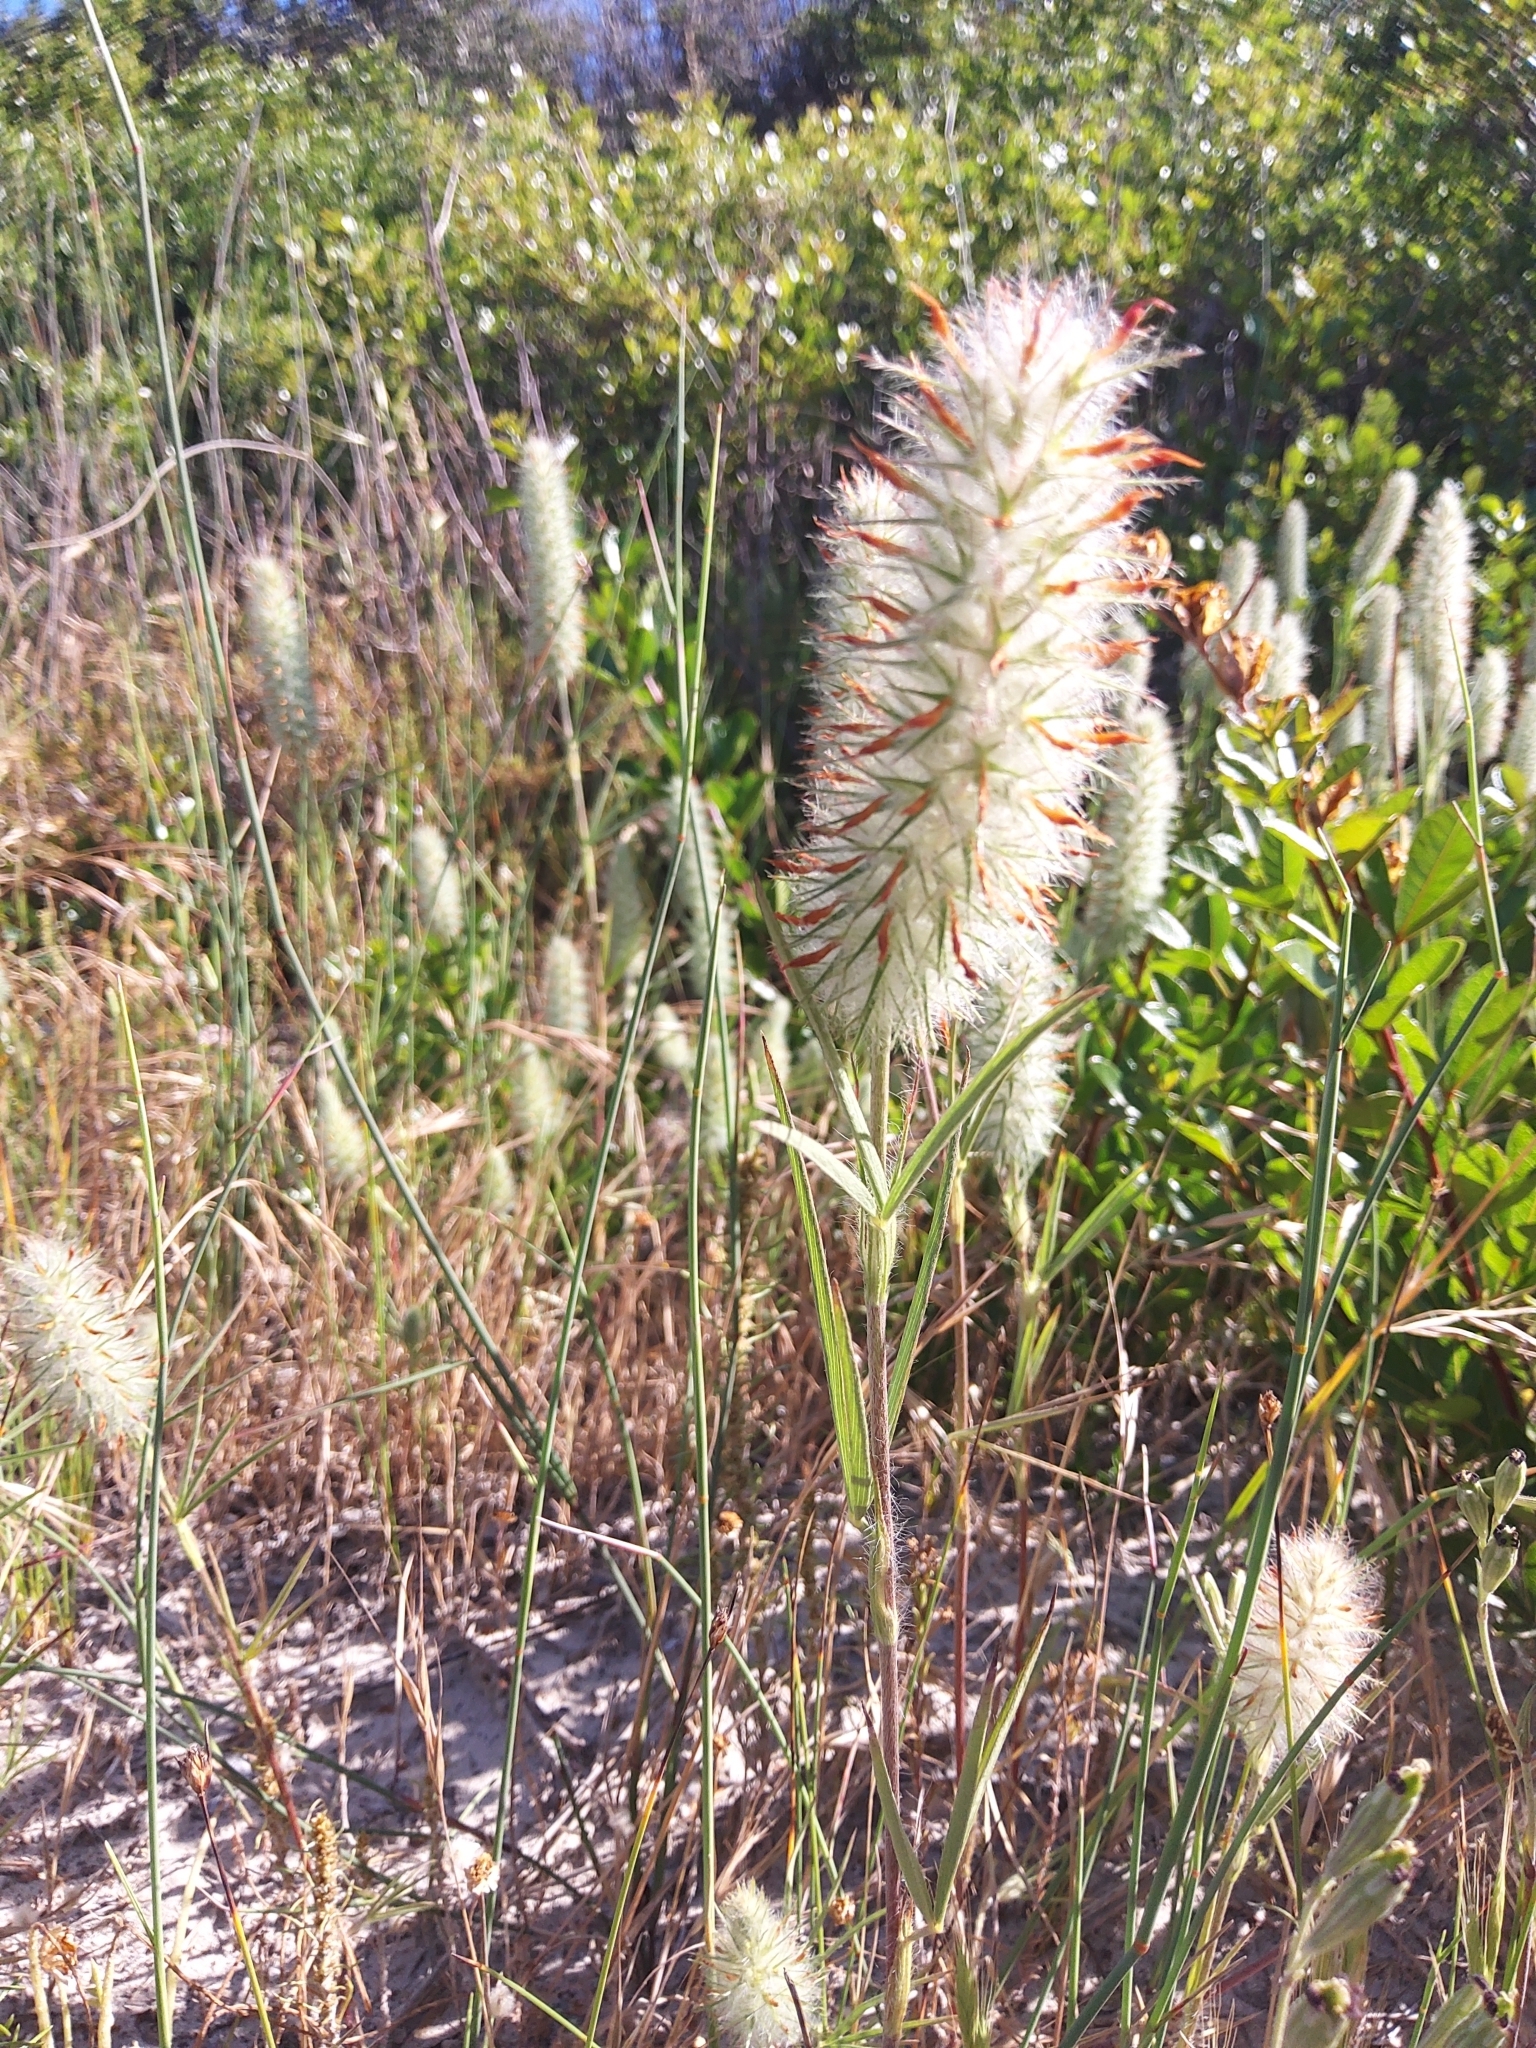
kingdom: Plantae
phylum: Tracheophyta
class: Magnoliopsida
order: Fabales
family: Fabaceae
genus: Trifolium
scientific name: Trifolium angustifolium
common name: Narrow clover
